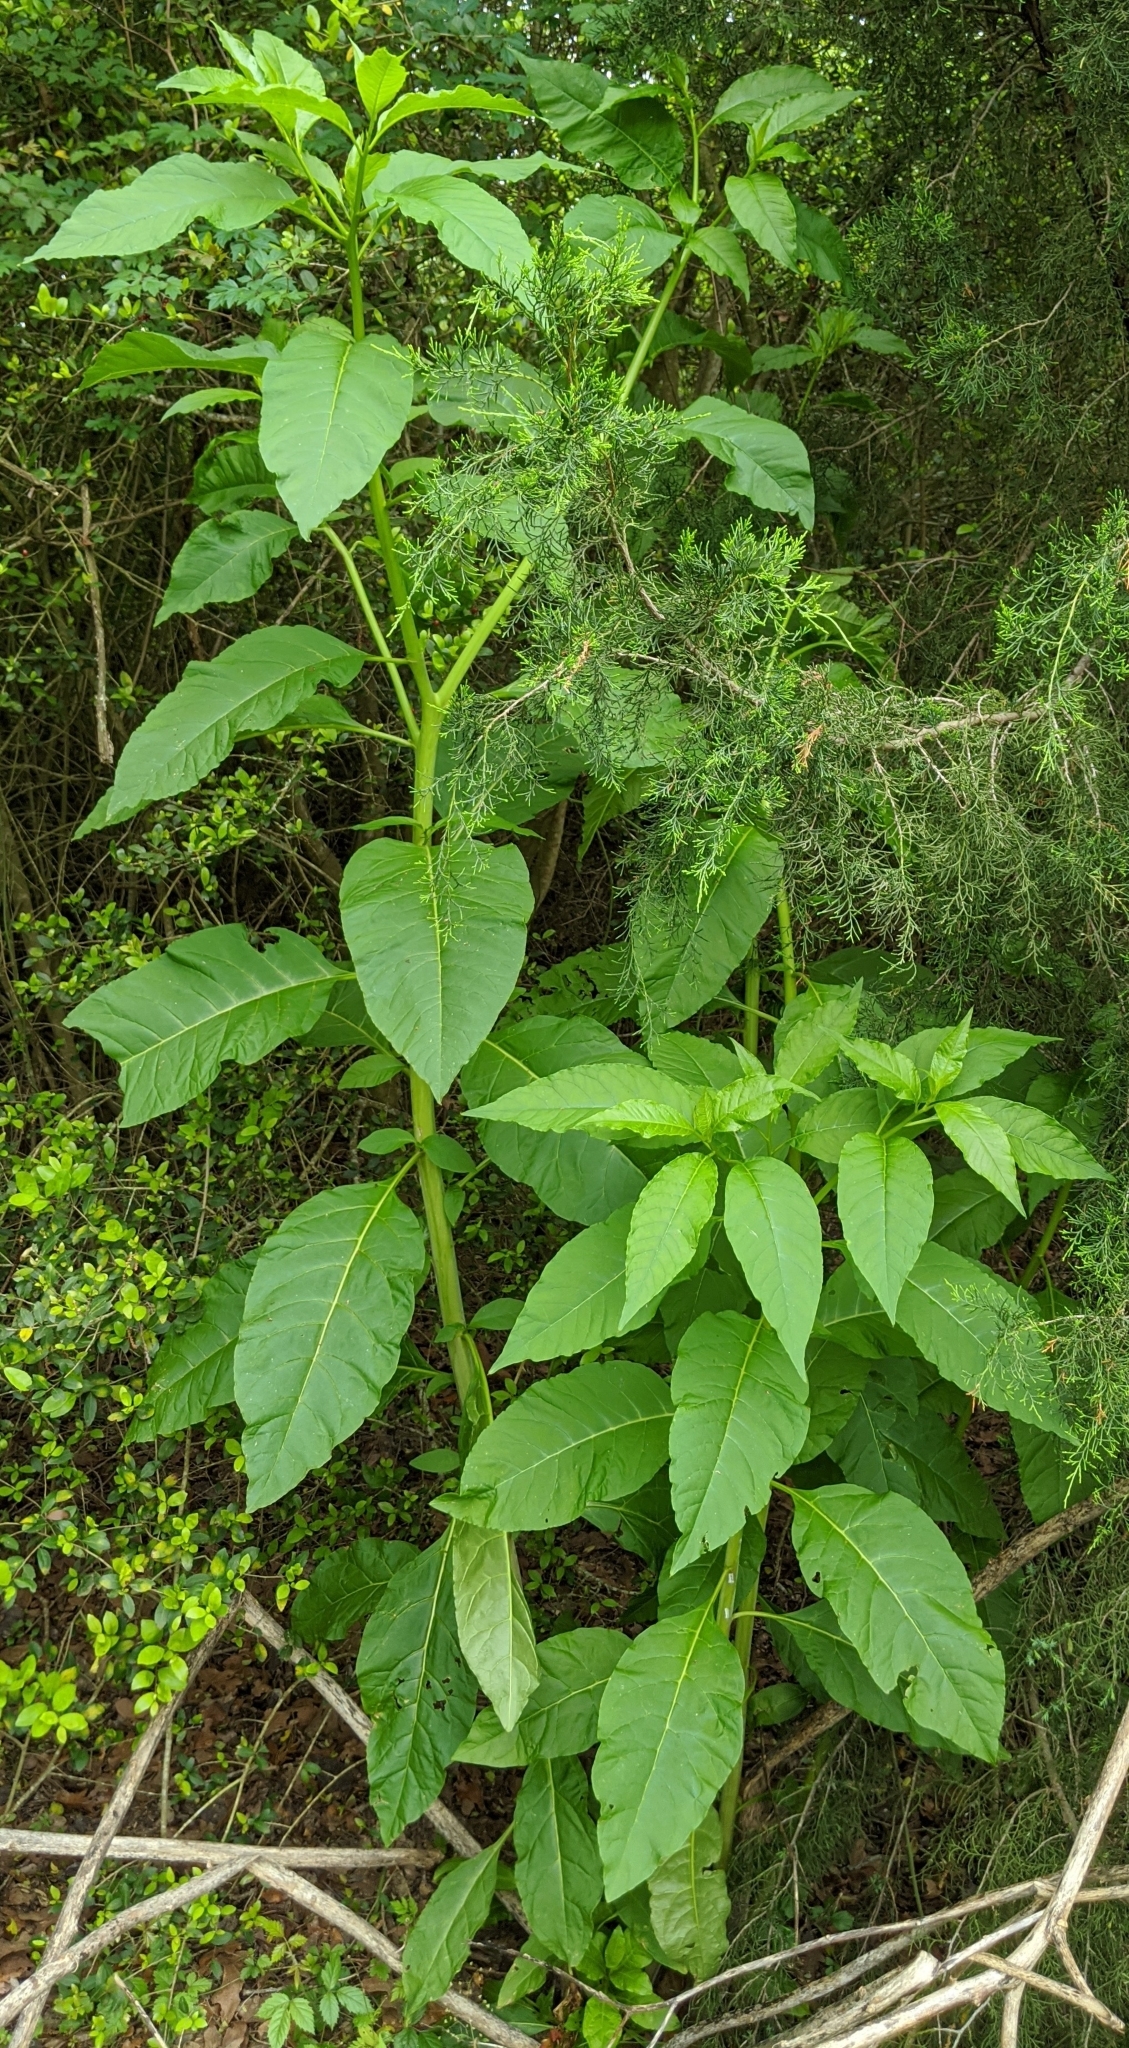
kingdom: Plantae
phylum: Tracheophyta
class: Magnoliopsida
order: Caryophyllales
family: Phytolaccaceae
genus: Phytolacca
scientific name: Phytolacca americana
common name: American pokeweed
